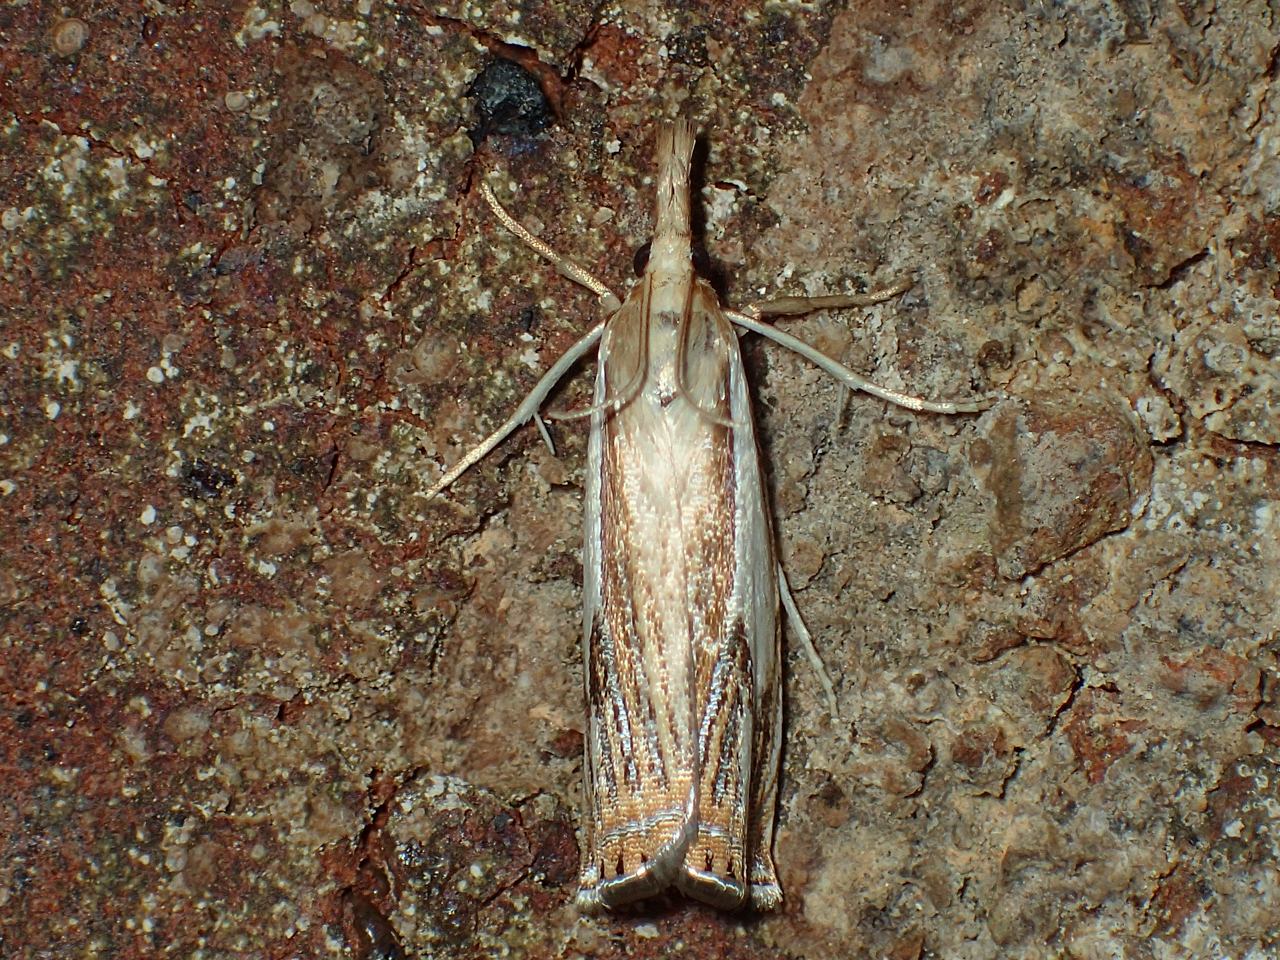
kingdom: Animalia
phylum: Arthropoda
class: Insecta
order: Lepidoptera
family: Crambidae
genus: Crambus
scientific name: Crambus agitatellus
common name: Double-banded grass-veneer
